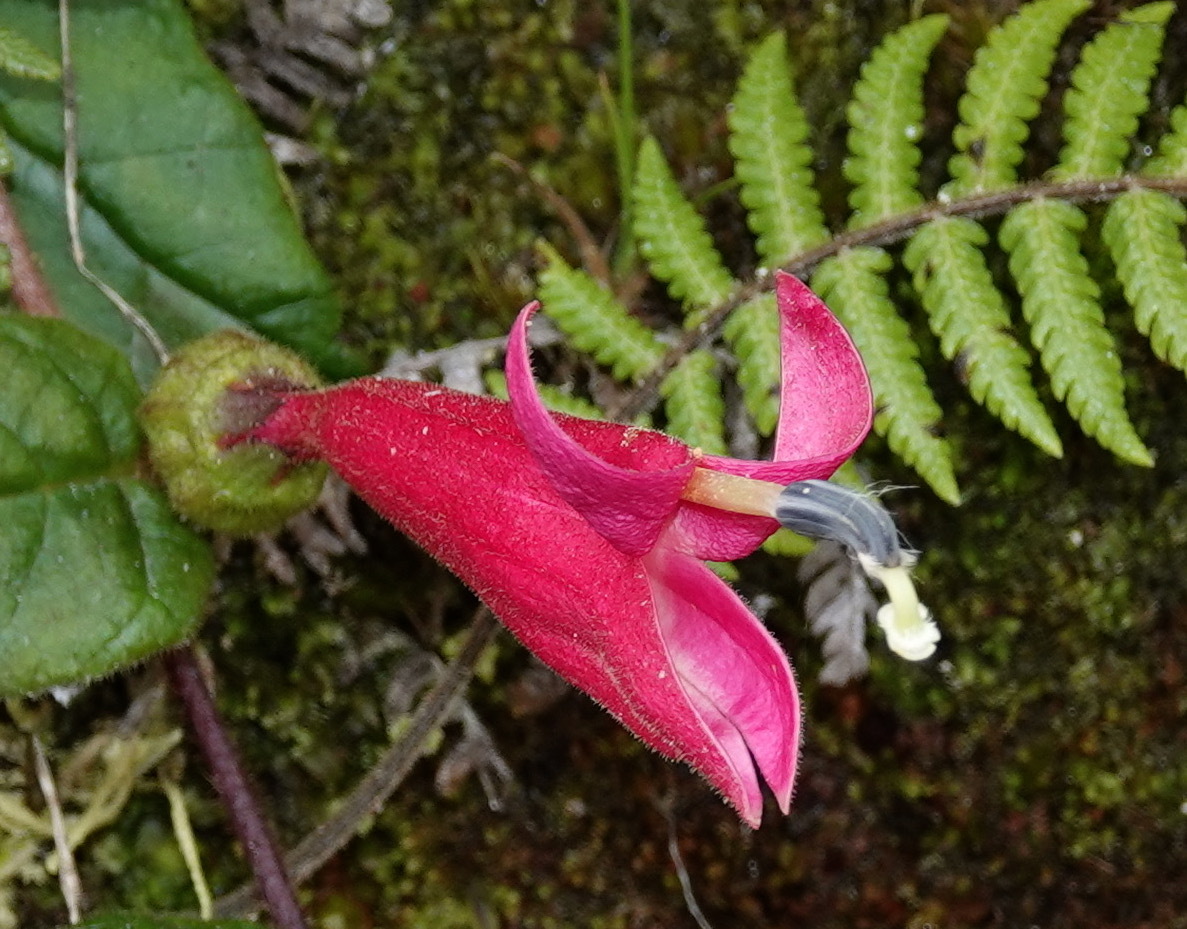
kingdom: Plantae
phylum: Tracheophyta
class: Magnoliopsida
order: Asterales
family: Campanulaceae
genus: Siphocampylus
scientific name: Siphocampylus benthamianus
